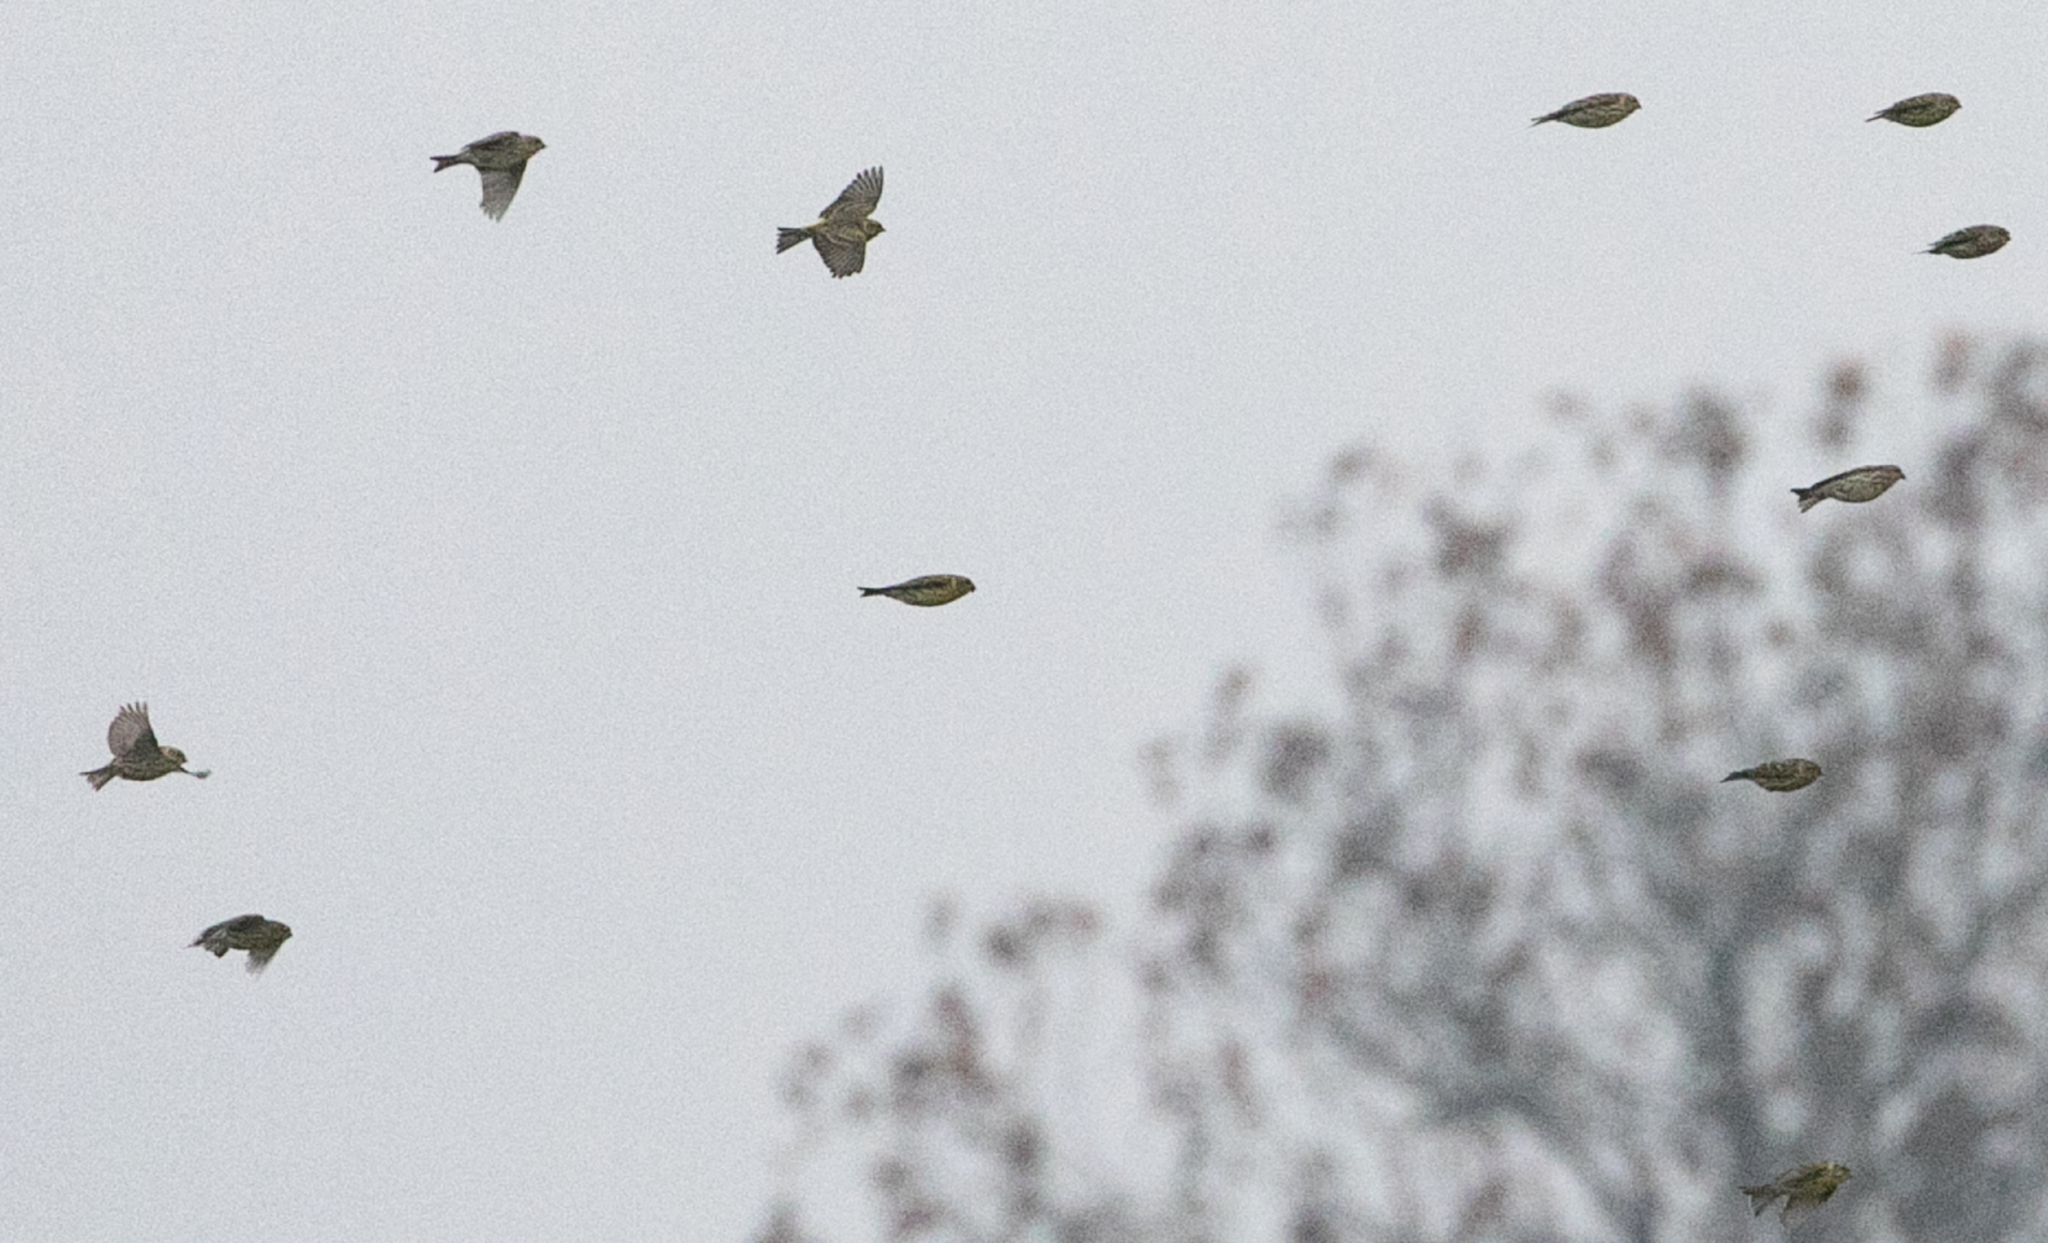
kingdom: Animalia
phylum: Chordata
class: Aves
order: Passeriformes
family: Fringillidae
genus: Serinus
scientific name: Serinus serinus
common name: European serin
